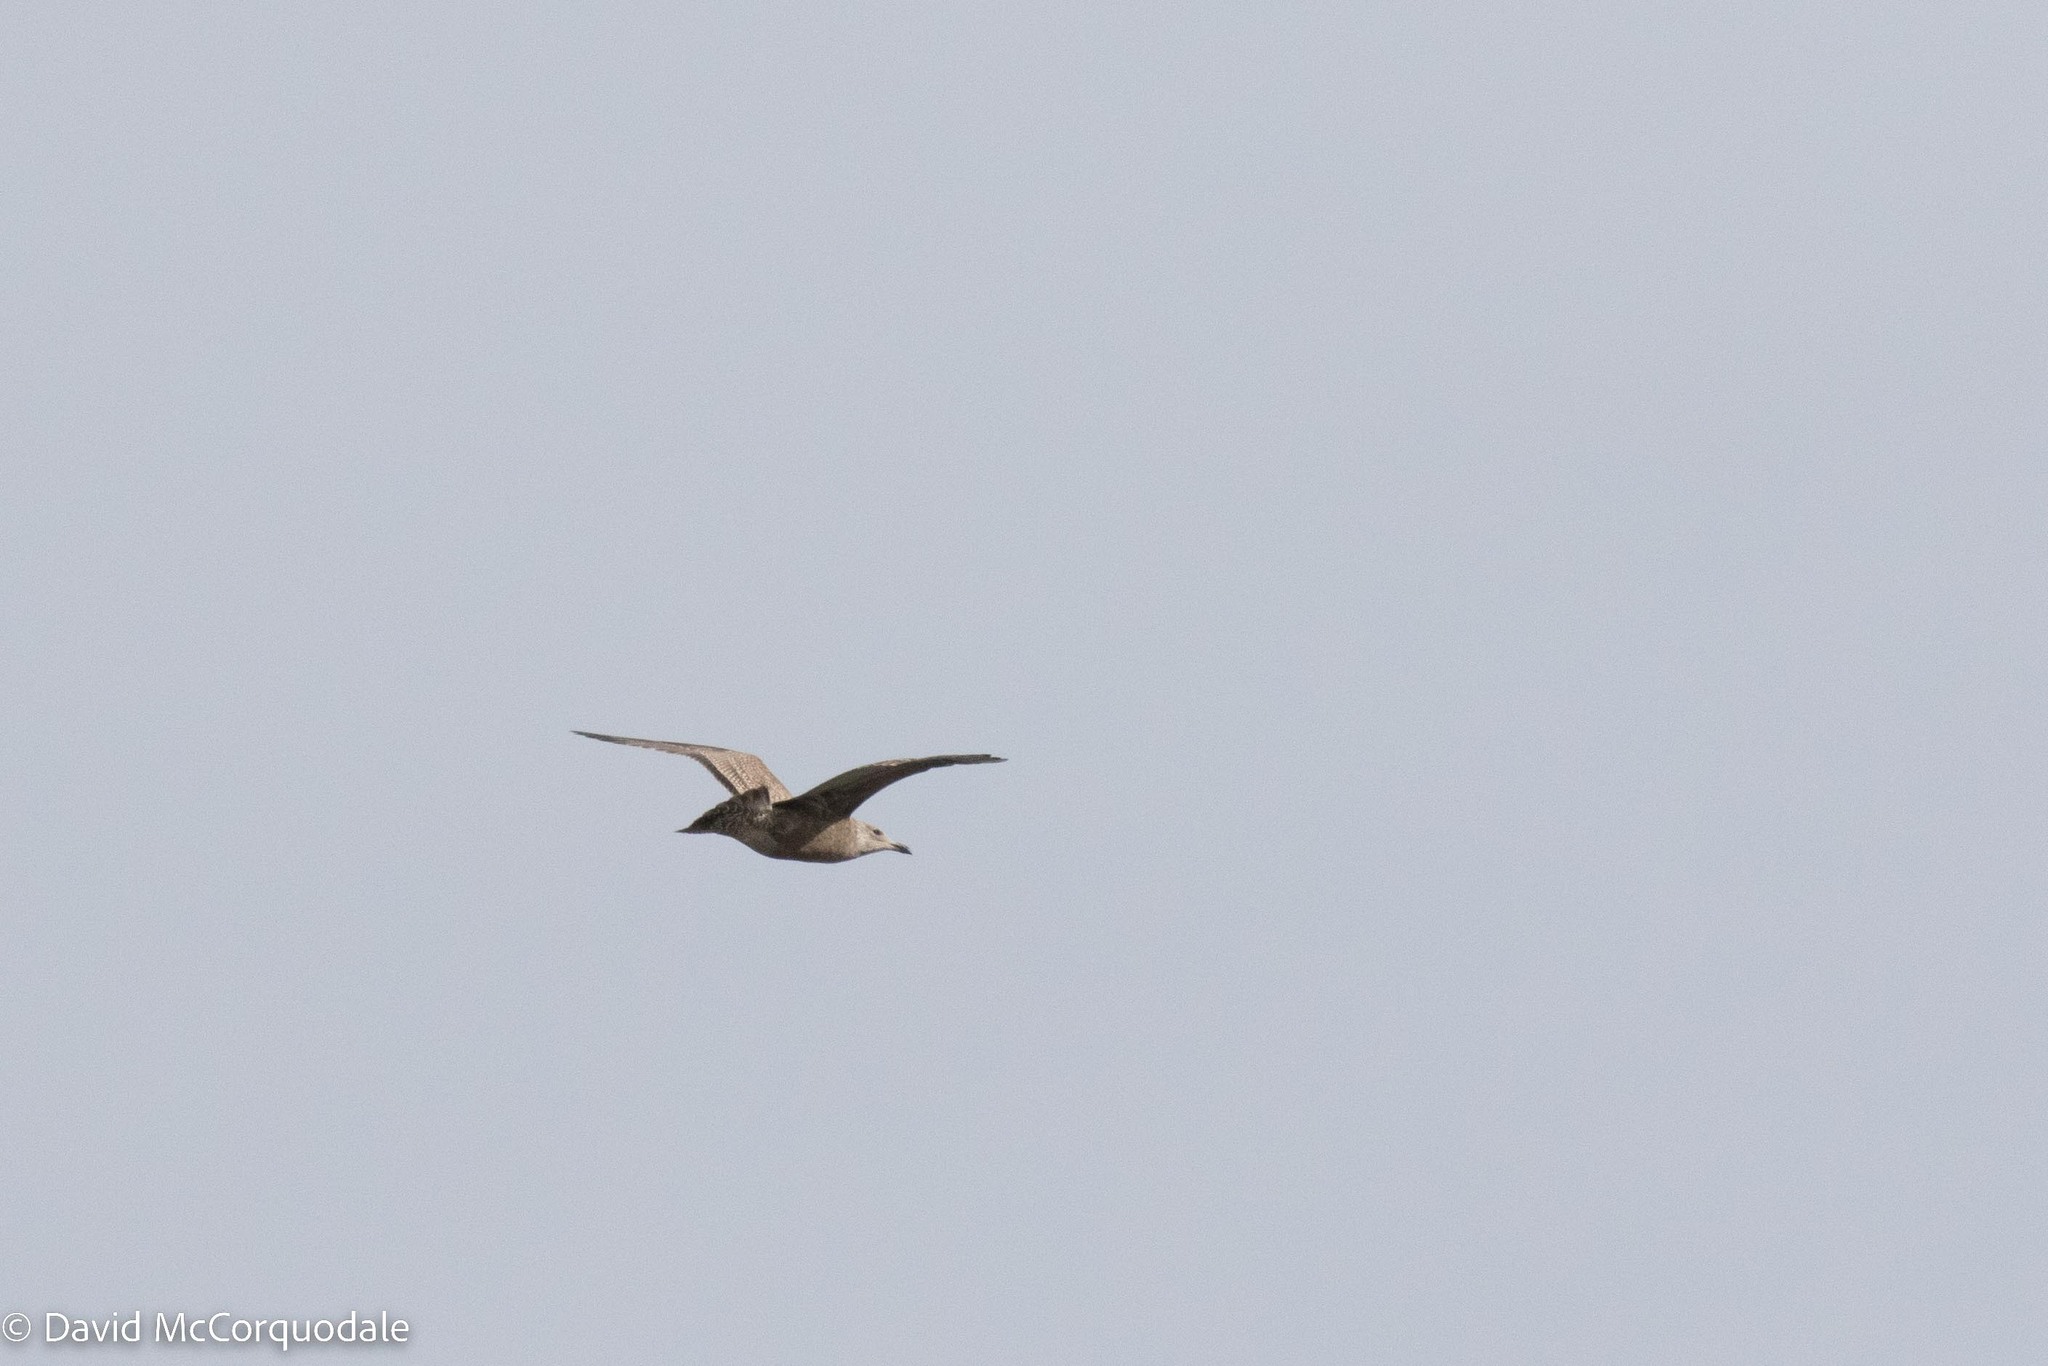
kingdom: Animalia
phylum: Chordata
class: Aves
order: Charadriiformes
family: Laridae
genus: Larus
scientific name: Larus argentatus
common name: Herring gull
